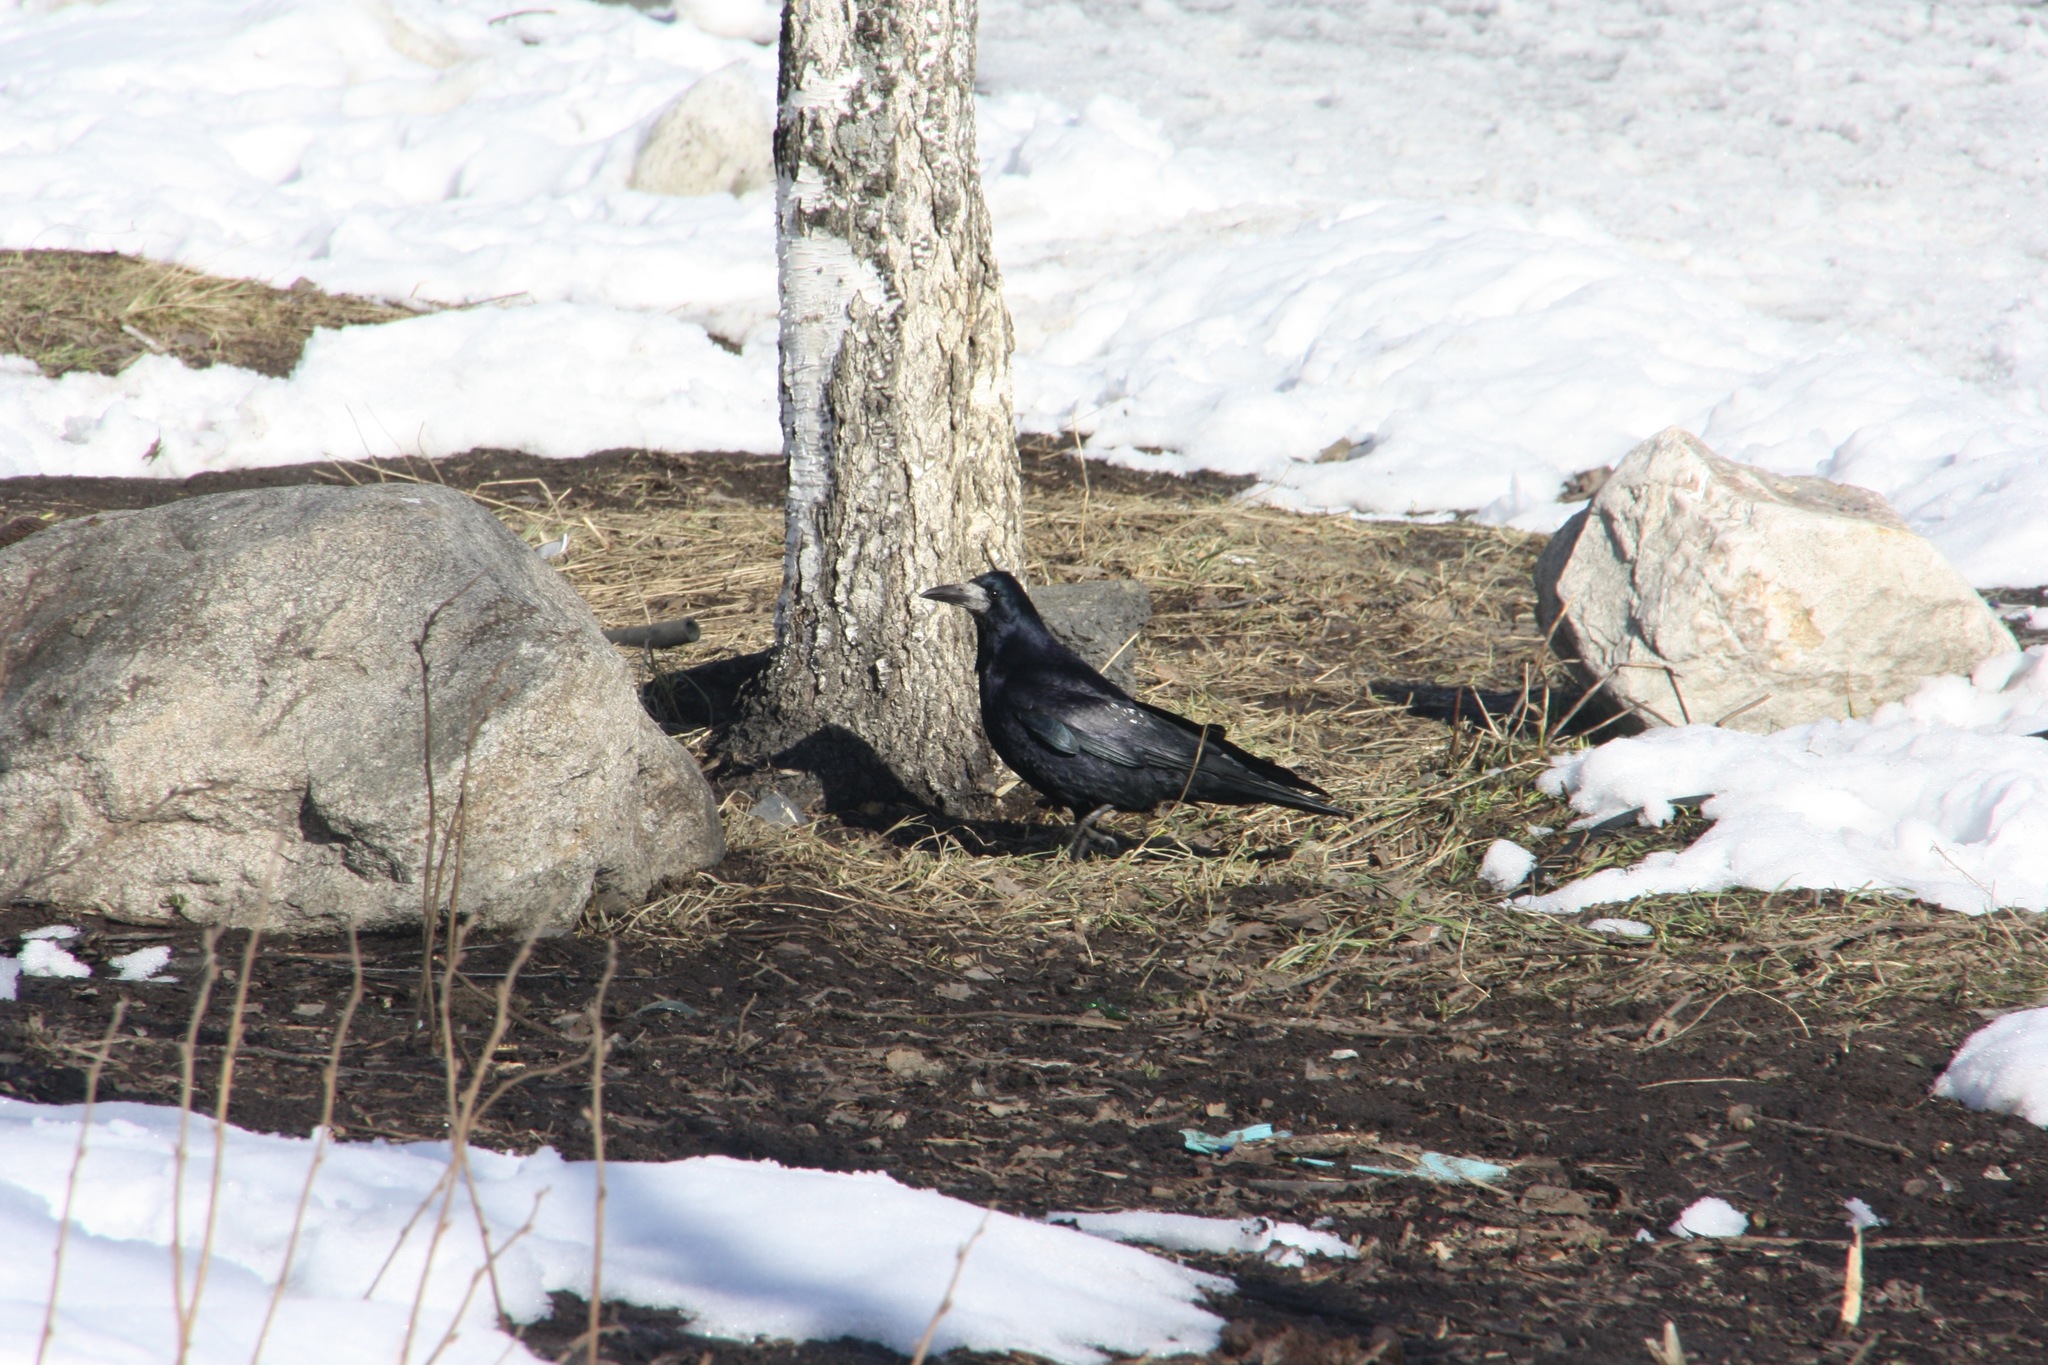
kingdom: Animalia
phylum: Chordata
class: Aves
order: Passeriformes
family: Corvidae
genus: Corvus
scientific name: Corvus frugilegus
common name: Rook
